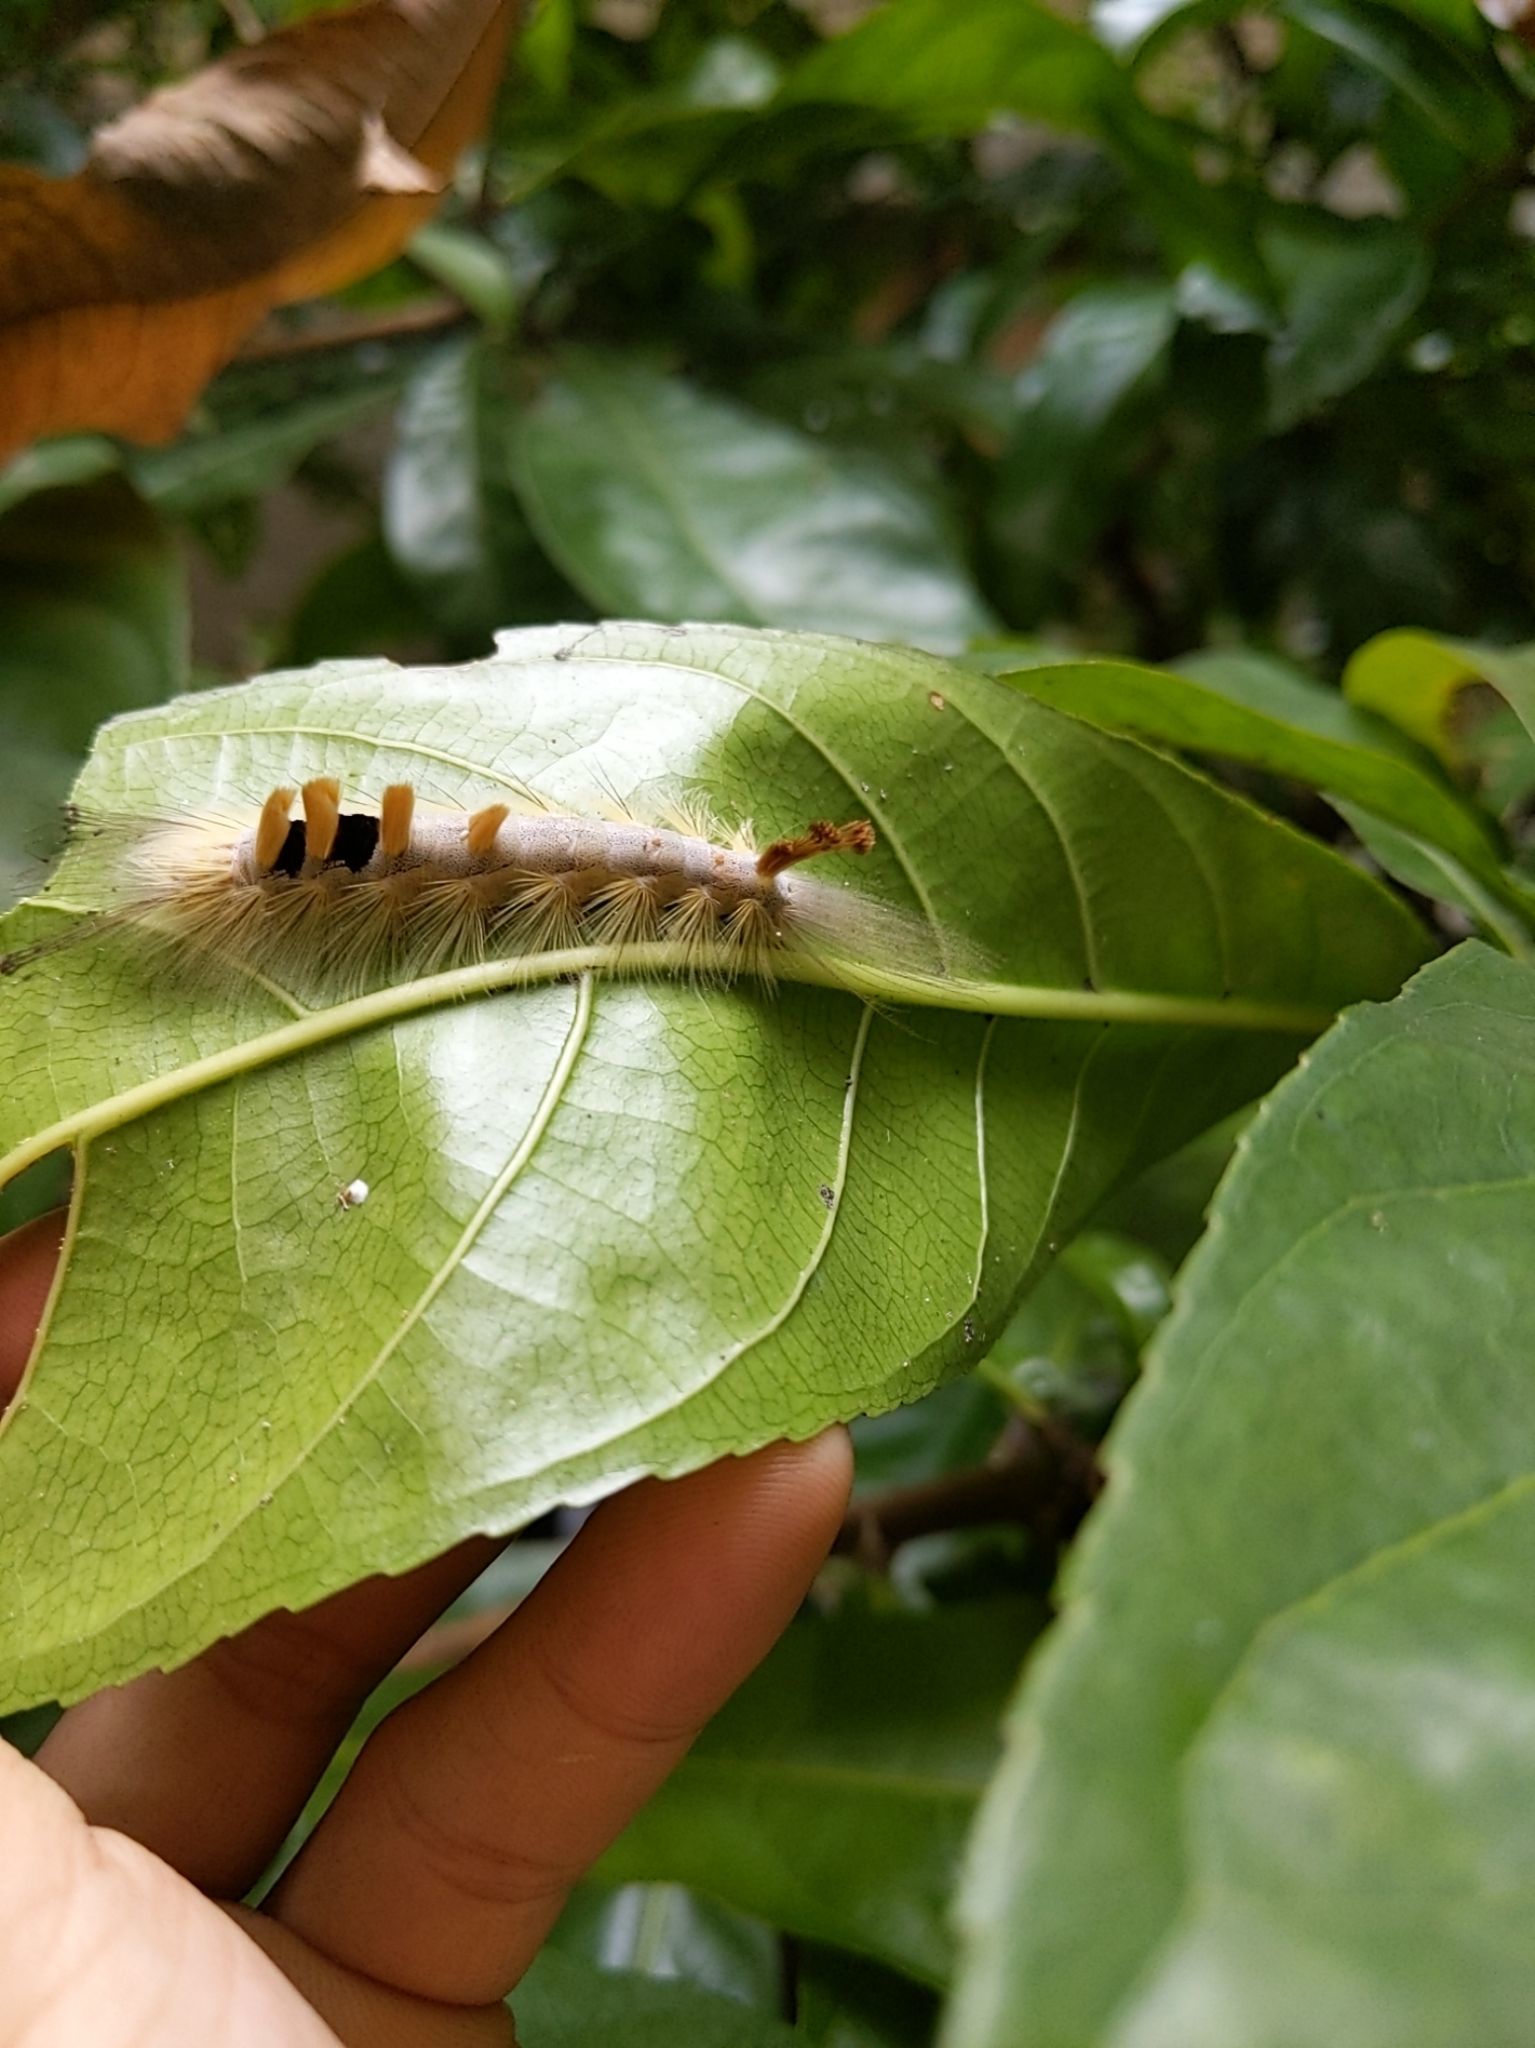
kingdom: Animalia
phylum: Arthropoda
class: Insecta
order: Lepidoptera
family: Erebidae
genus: Olene
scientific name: Olene dudgeoni
